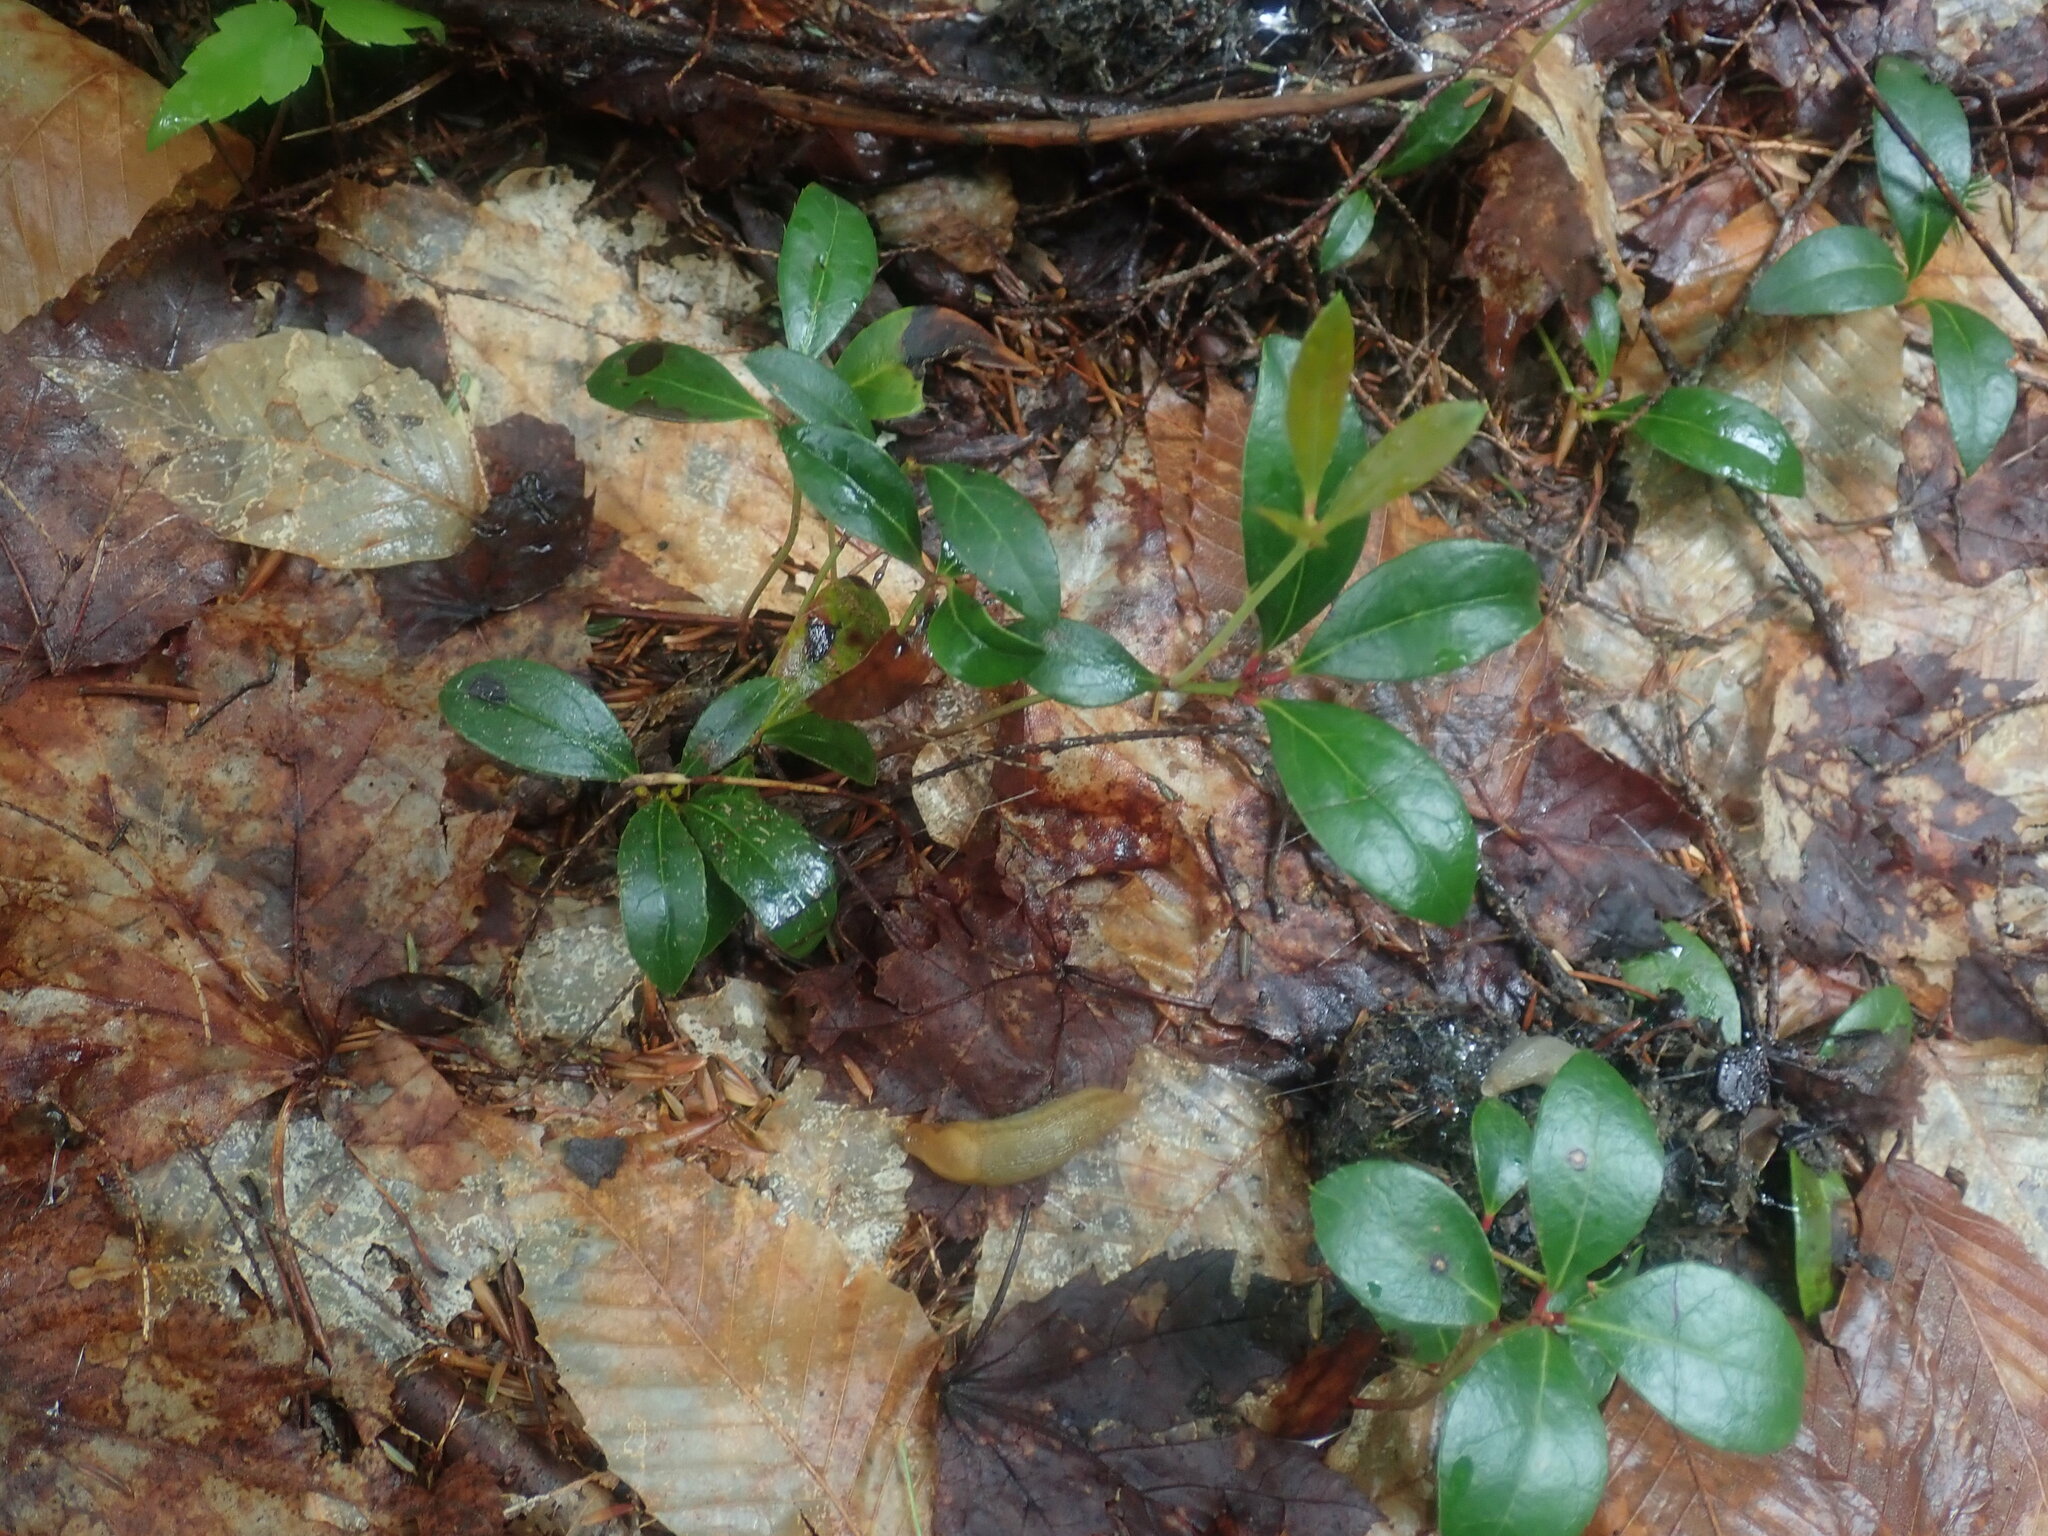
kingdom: Plantae
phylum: Tracheophyta
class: Magnoliopsida
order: Ericales
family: Ericaceae
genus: Gaultheria
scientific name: Gaultheria procumbens
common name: Checkerberry
